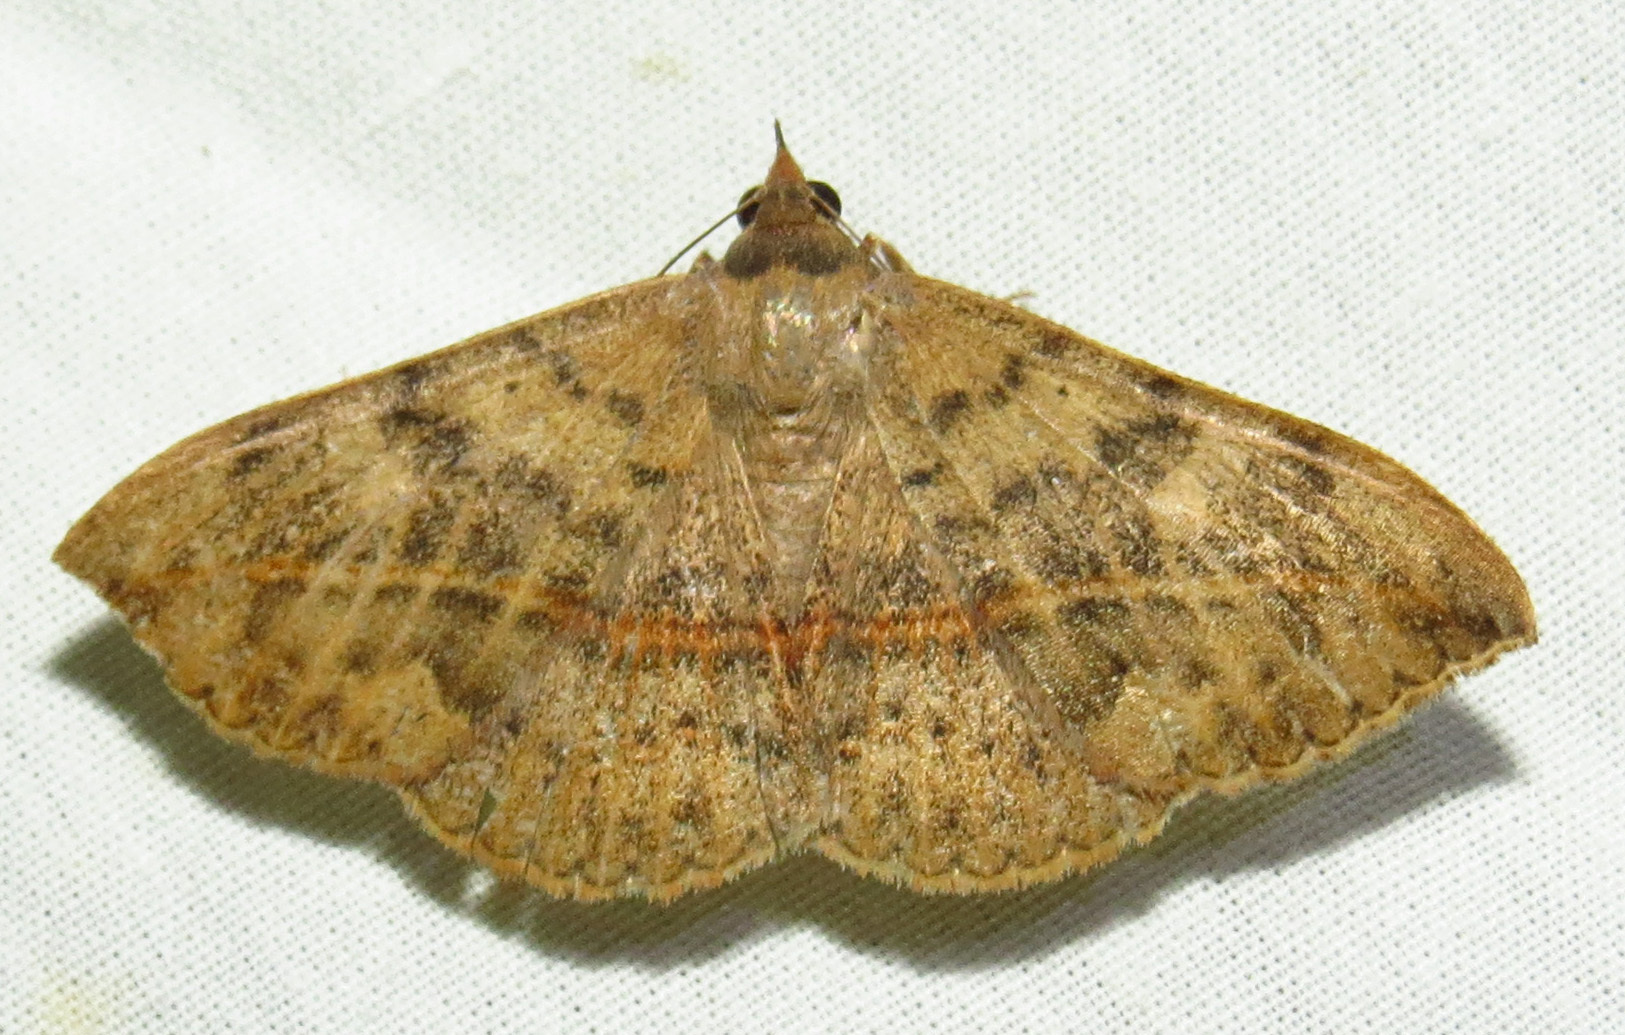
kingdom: Animalia
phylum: Arthropoda
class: Insecta
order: Lepidoptera
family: Erebidae
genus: Anticarsia
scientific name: Anticarsia gemmatalis
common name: Cutworm moth
